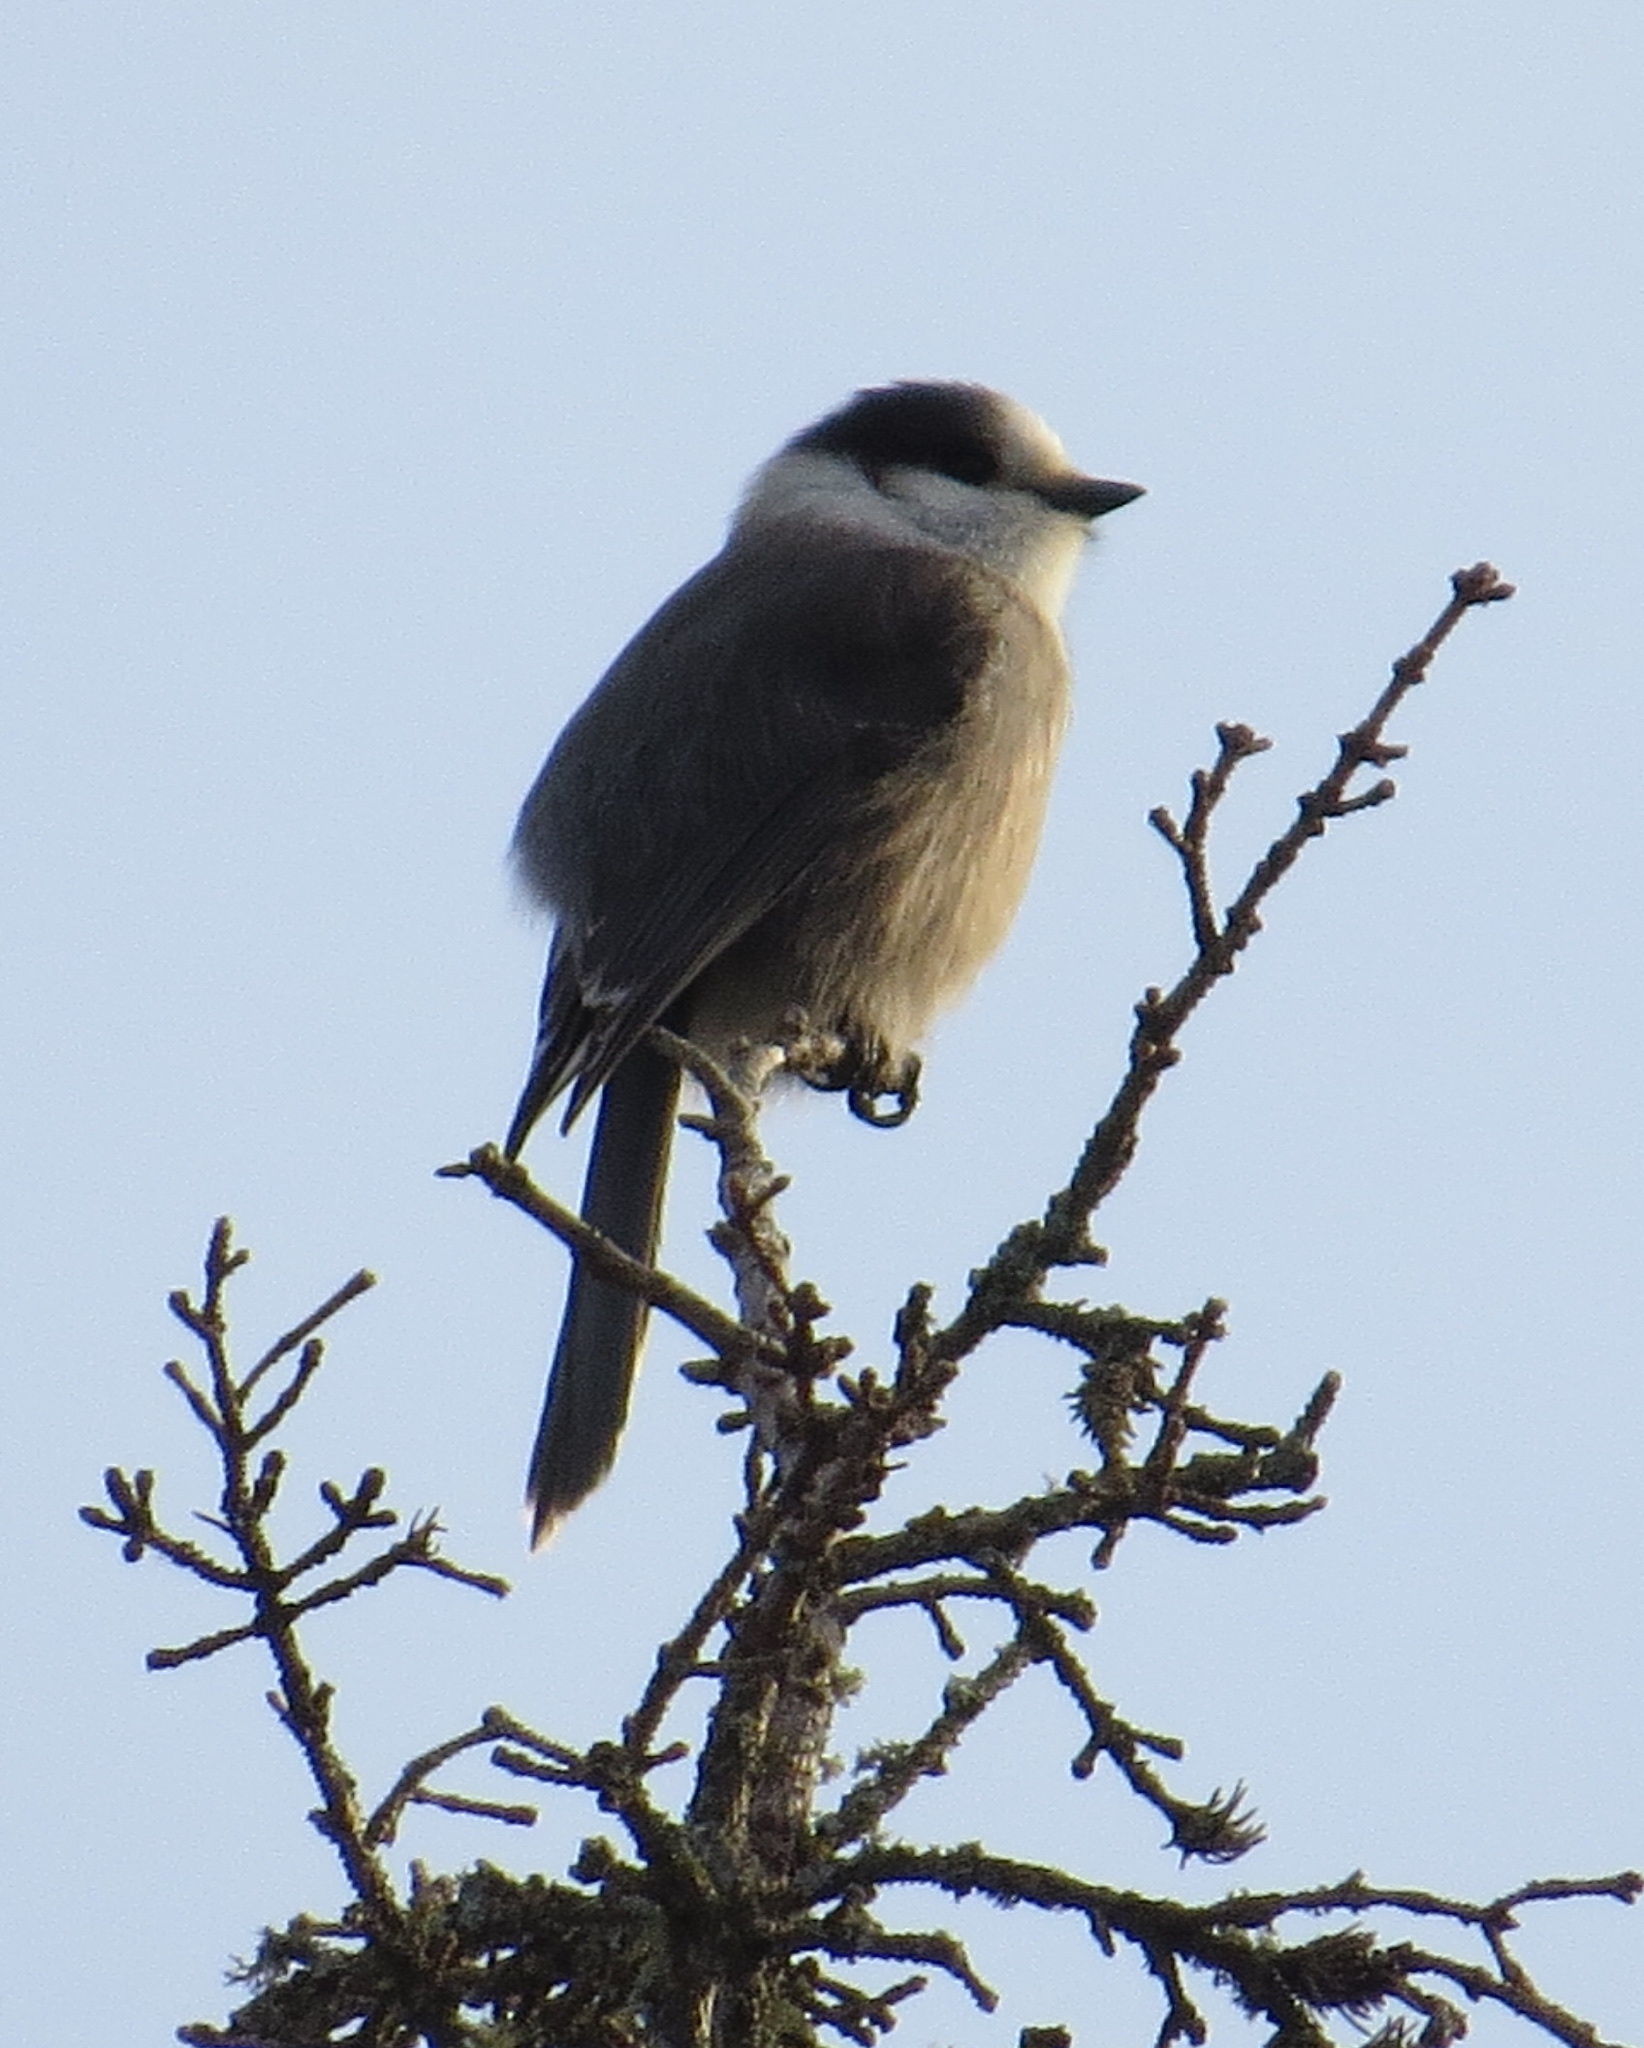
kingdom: Animalia
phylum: Chordata
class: Aves
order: Passeriformes
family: Corvidae
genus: Perisoreus
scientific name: Perisoreus canadensis
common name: Gray jay
